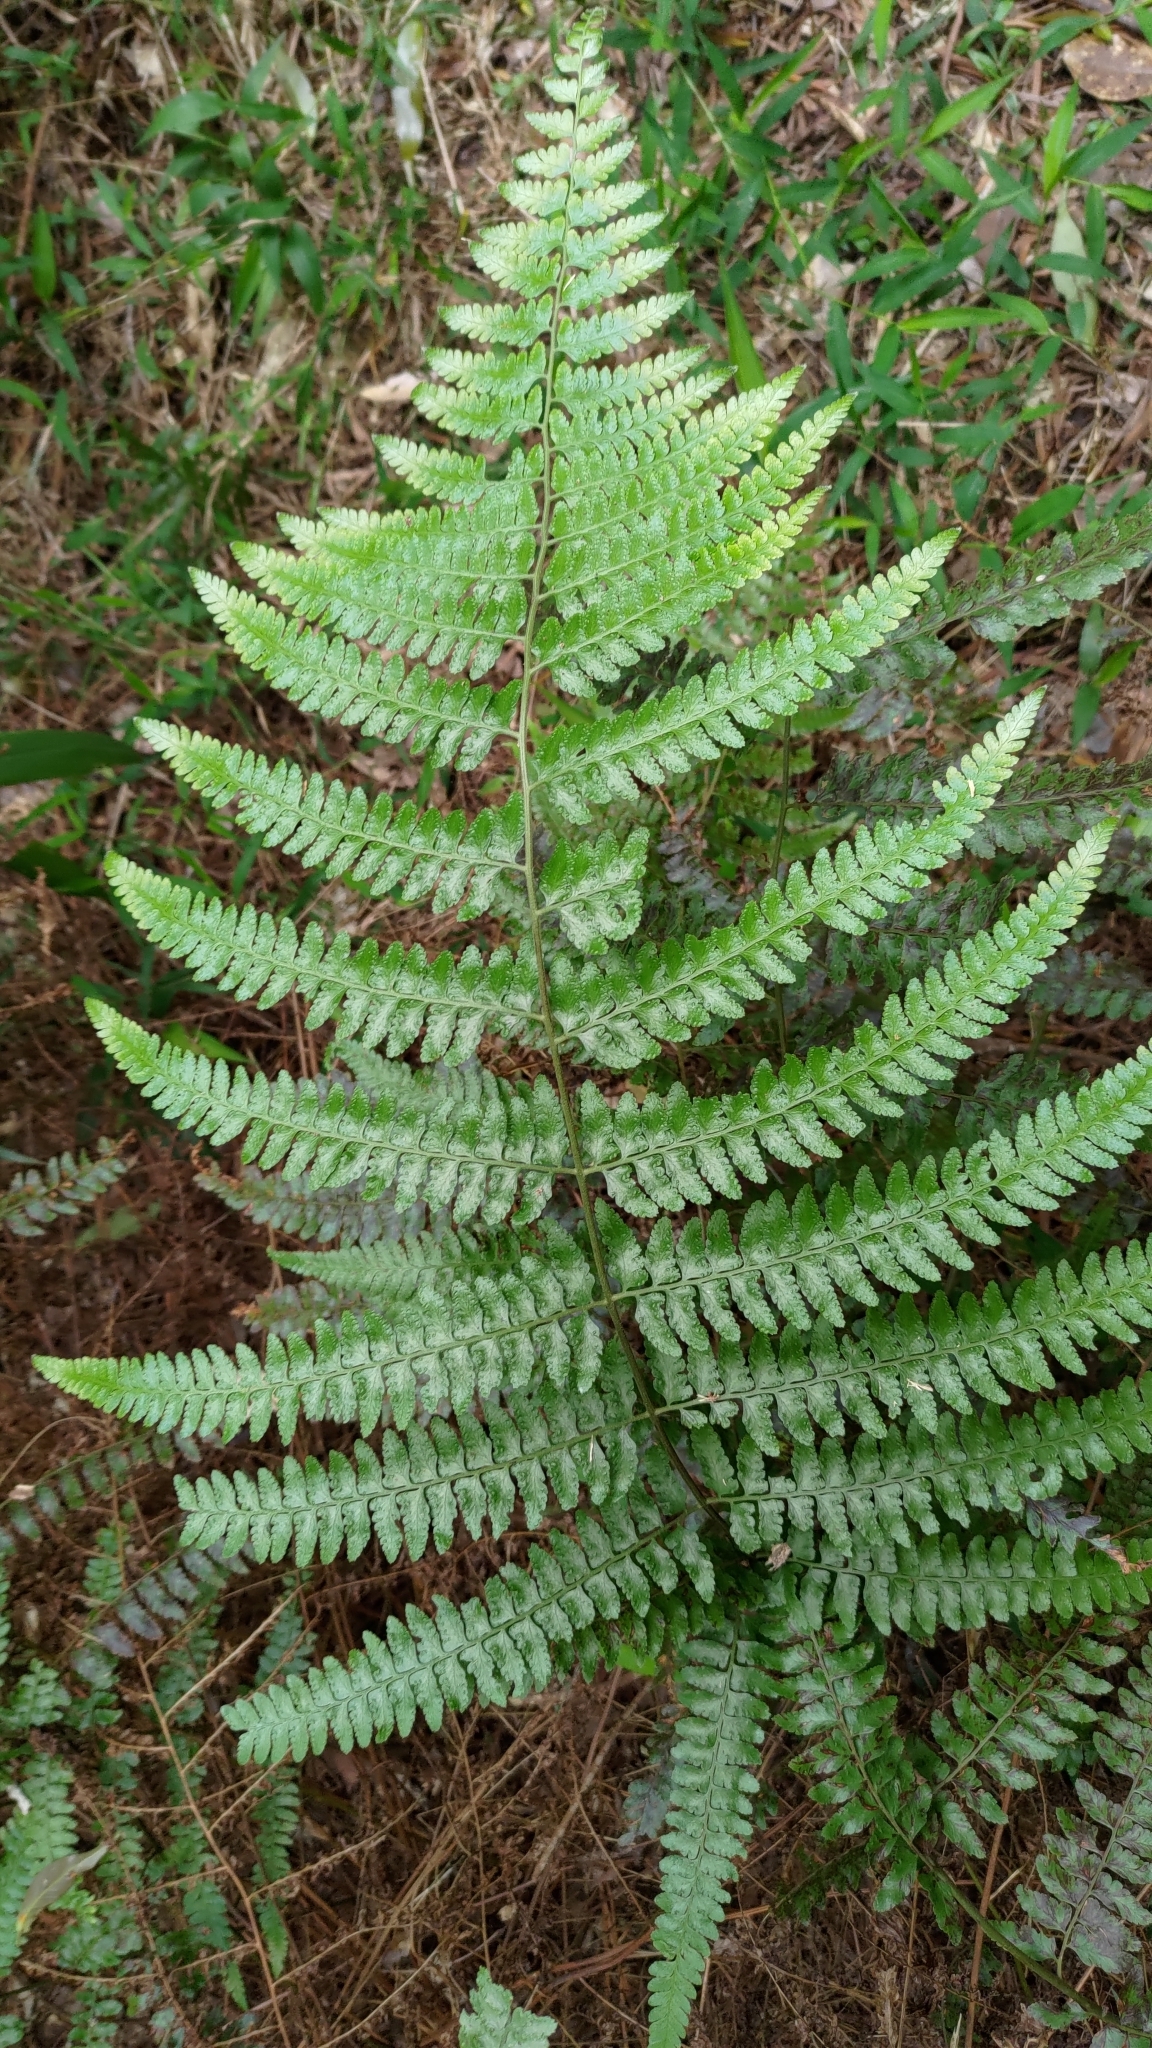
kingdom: Plantae
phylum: Tracheophyta
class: Polypodiopsida
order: Polypodiales
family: Dennstaedtiaceae
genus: Microlepia
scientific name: Microlepia krameri
